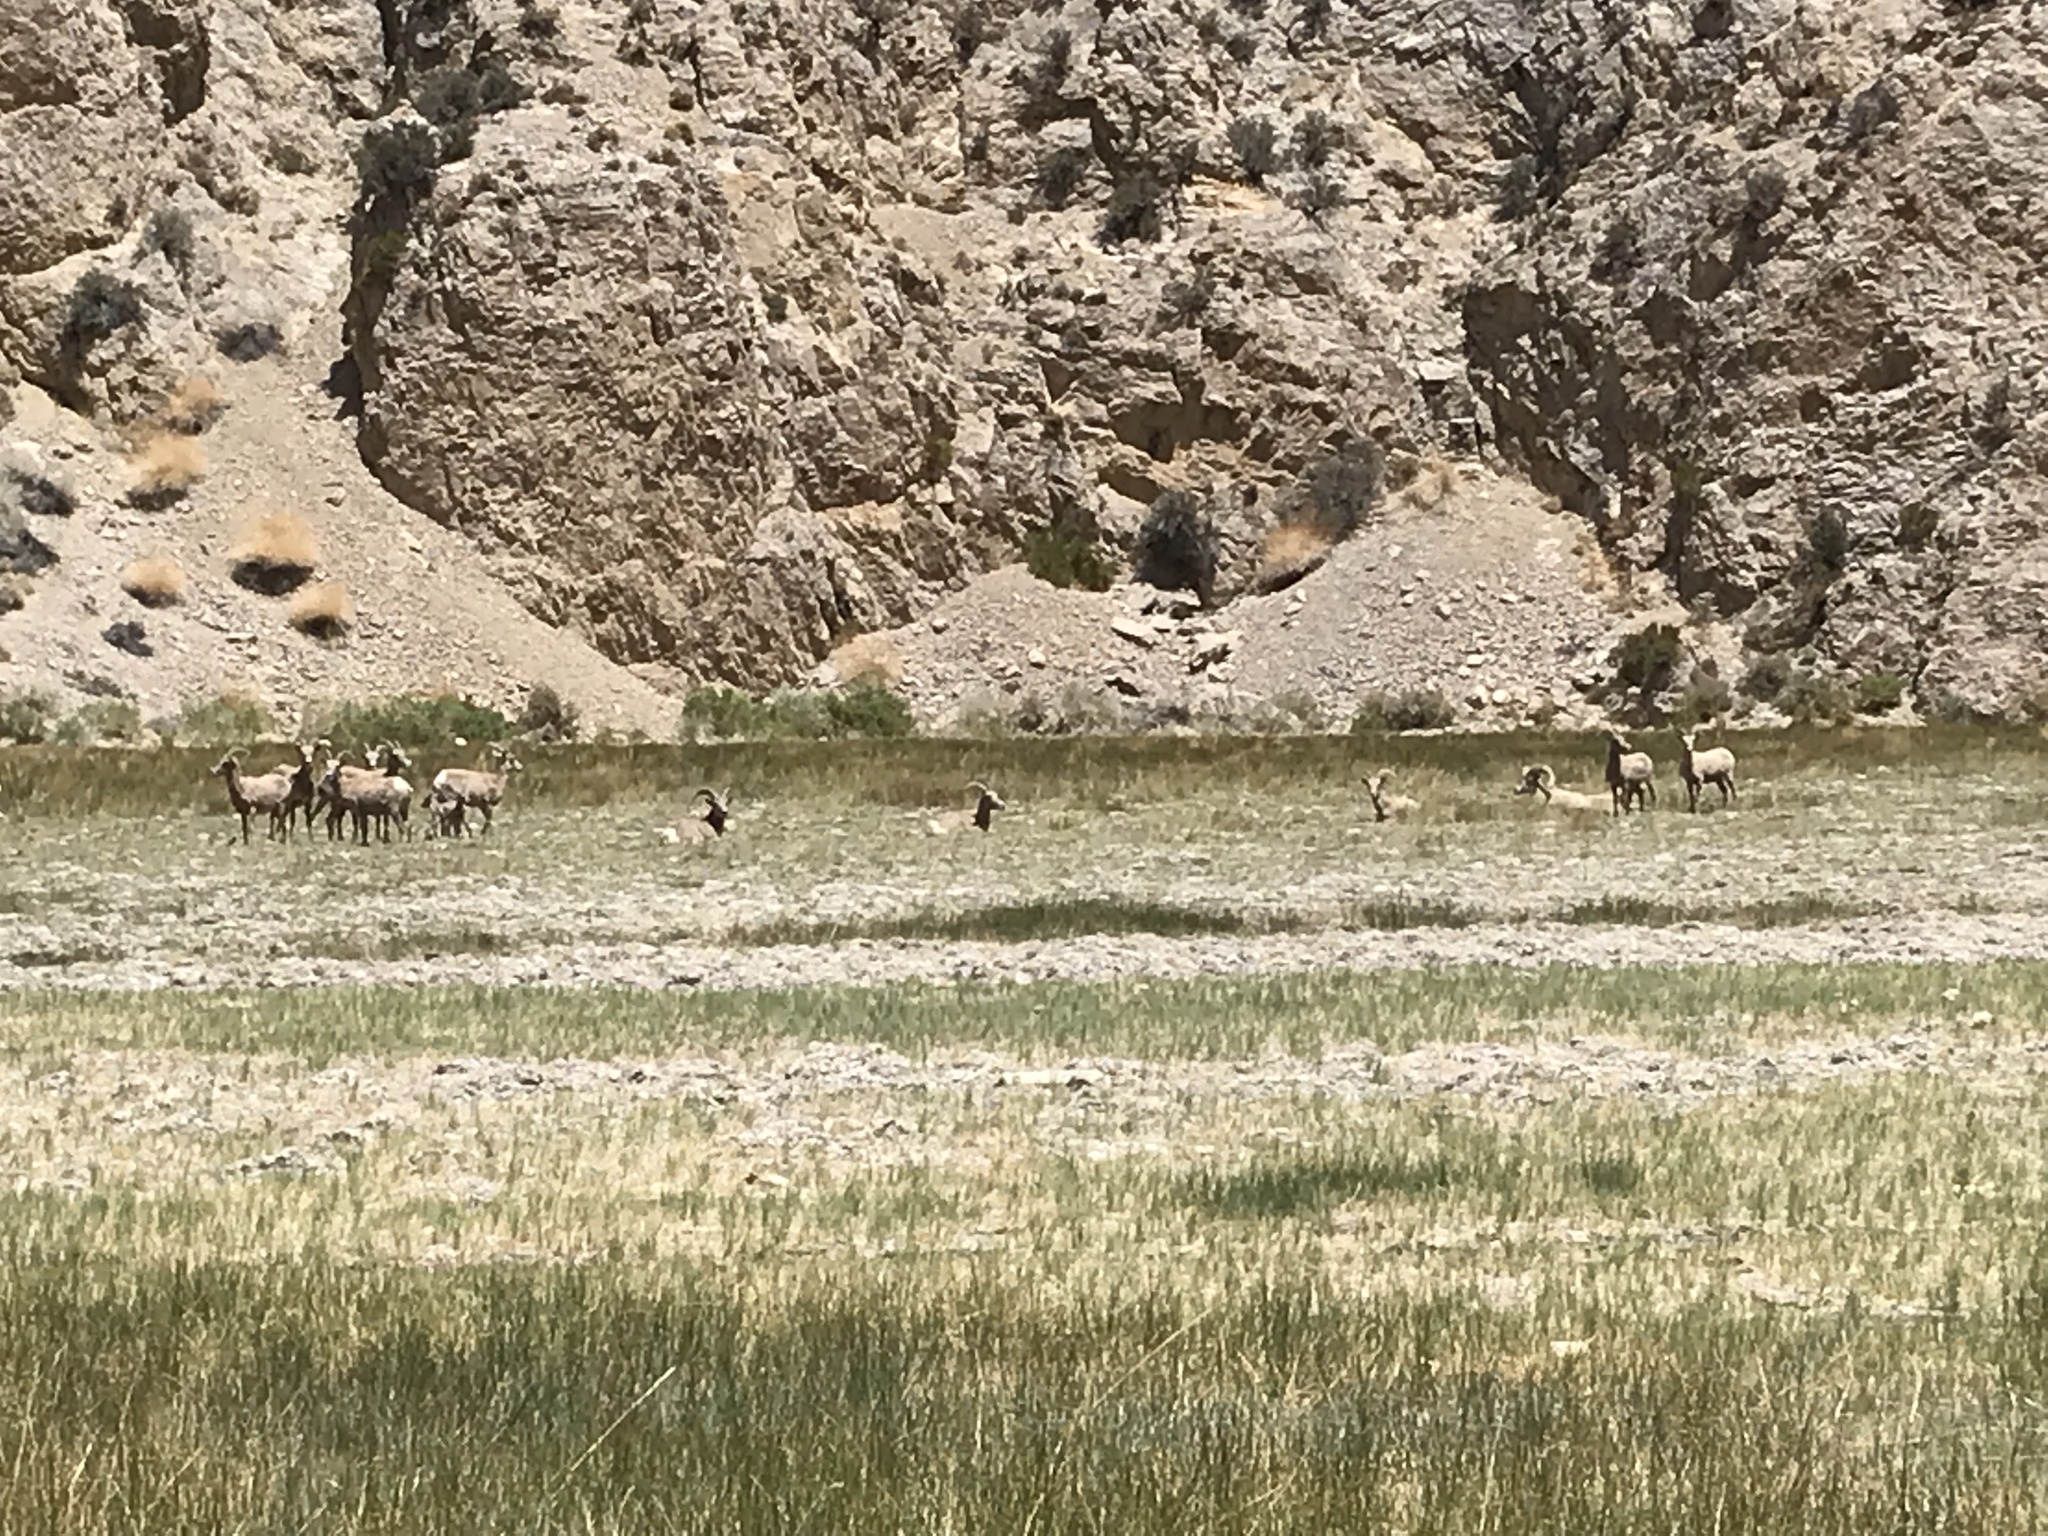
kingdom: Animalia
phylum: Chordata
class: Mammalia
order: Artiodactyla
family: Bovidae
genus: Ovis
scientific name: Ovis canadensis
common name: Bighorn sheep
